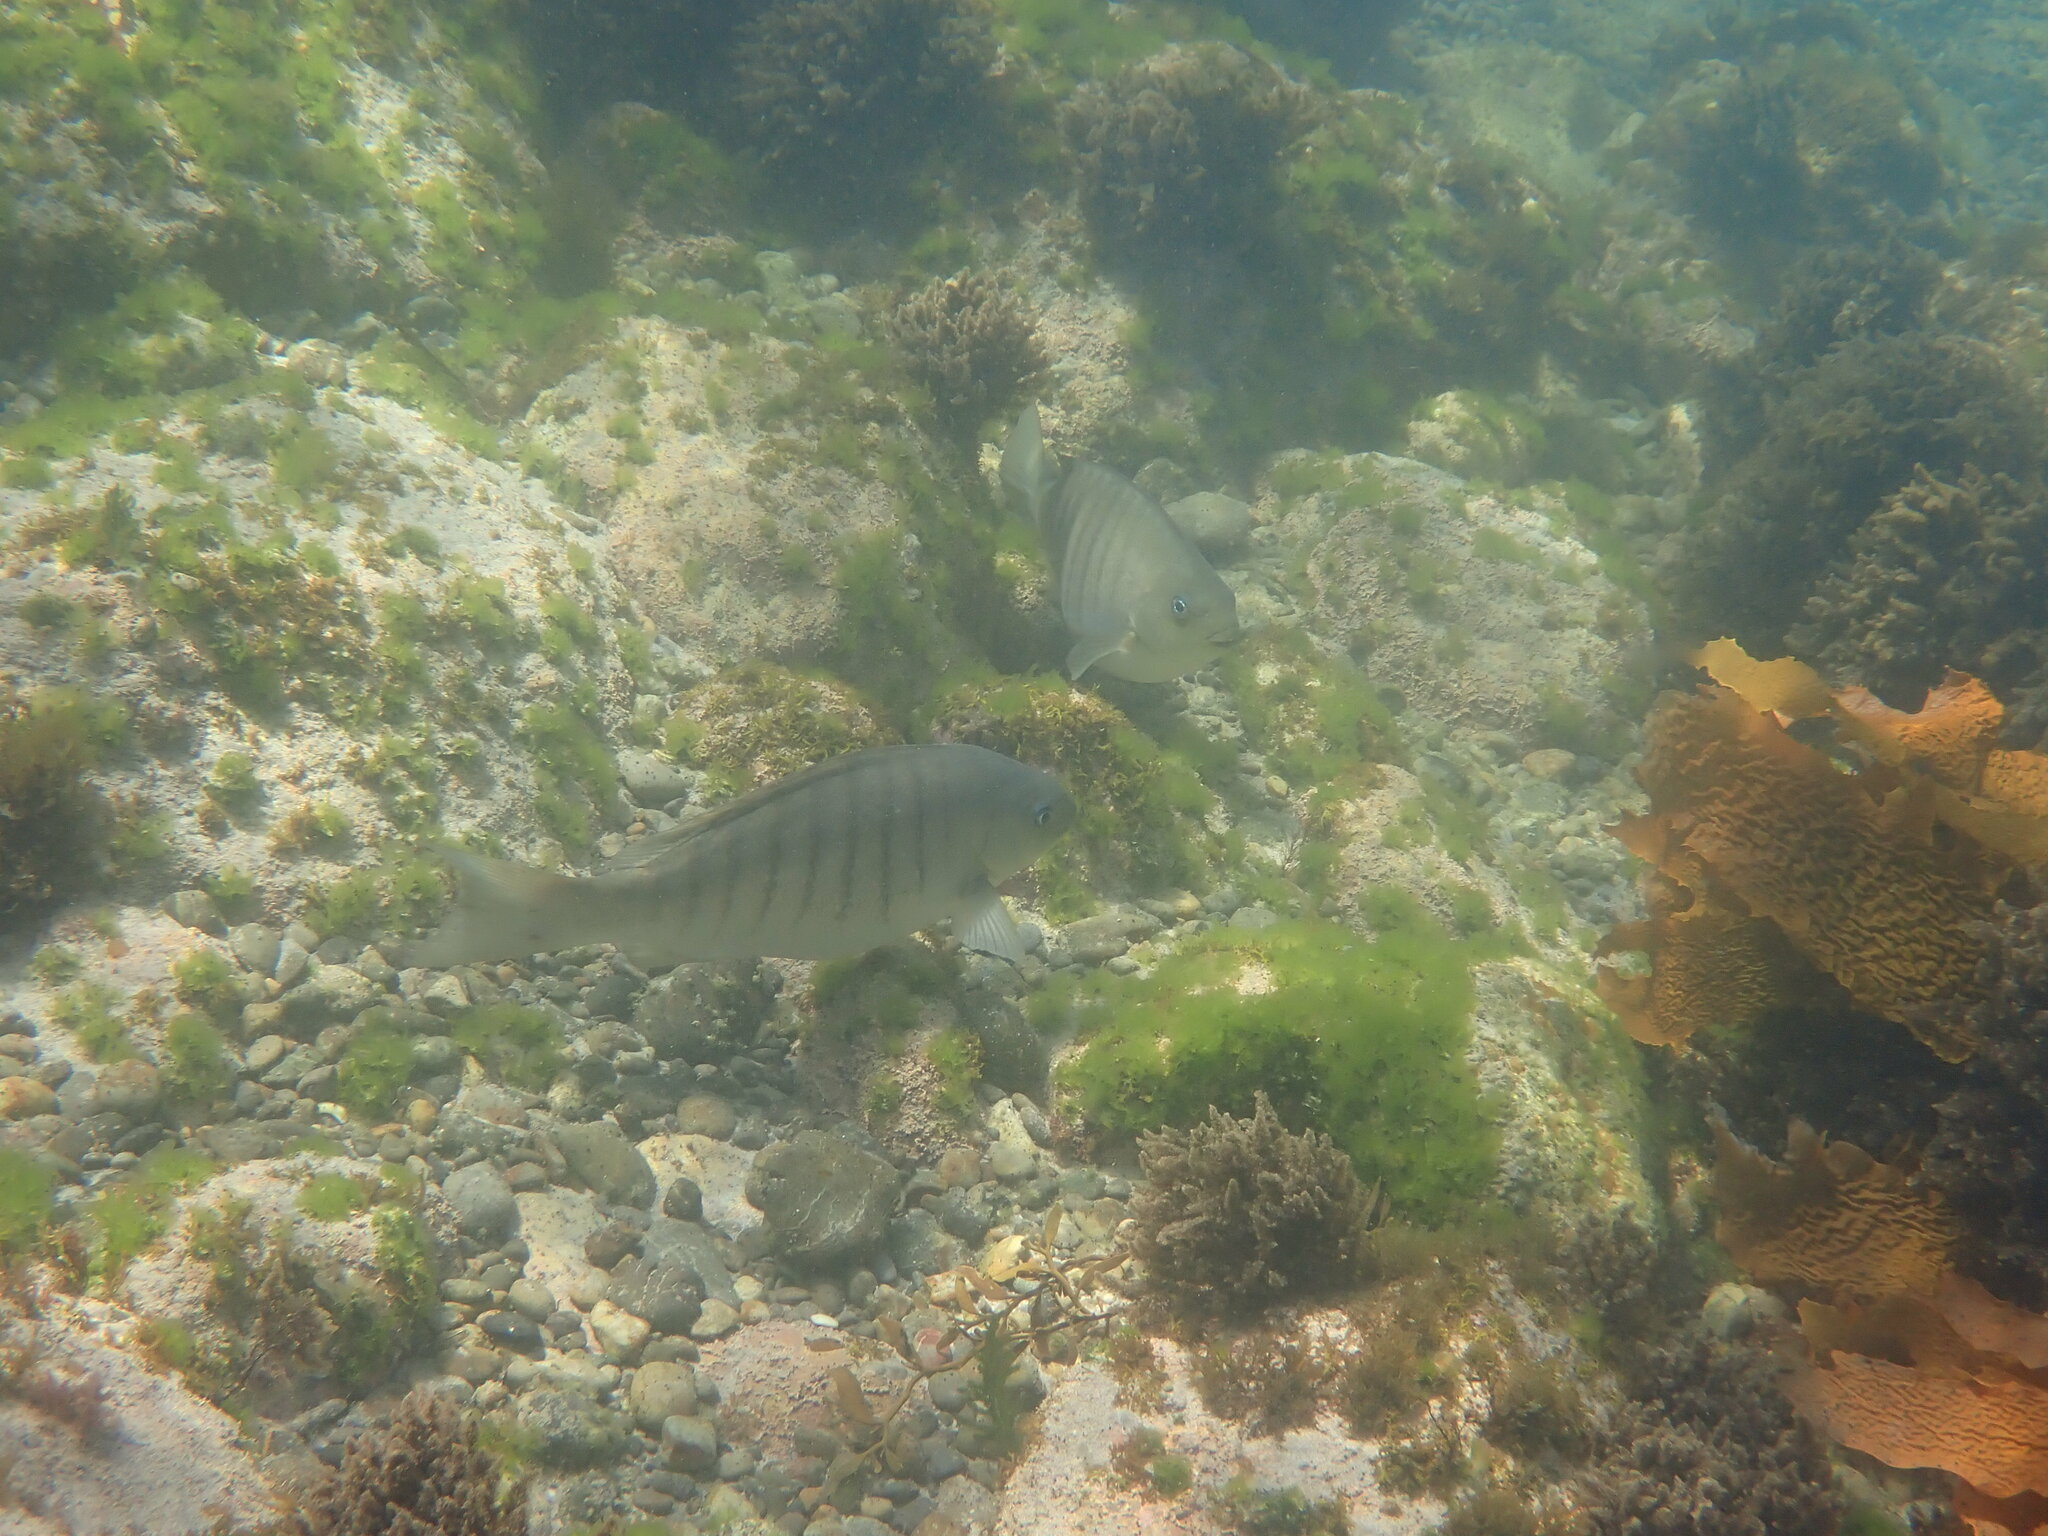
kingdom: Animalia
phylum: Chordata
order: Perciformes
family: Kyphosidae
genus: Girella
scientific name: Girella tricuspidata
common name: Parore
